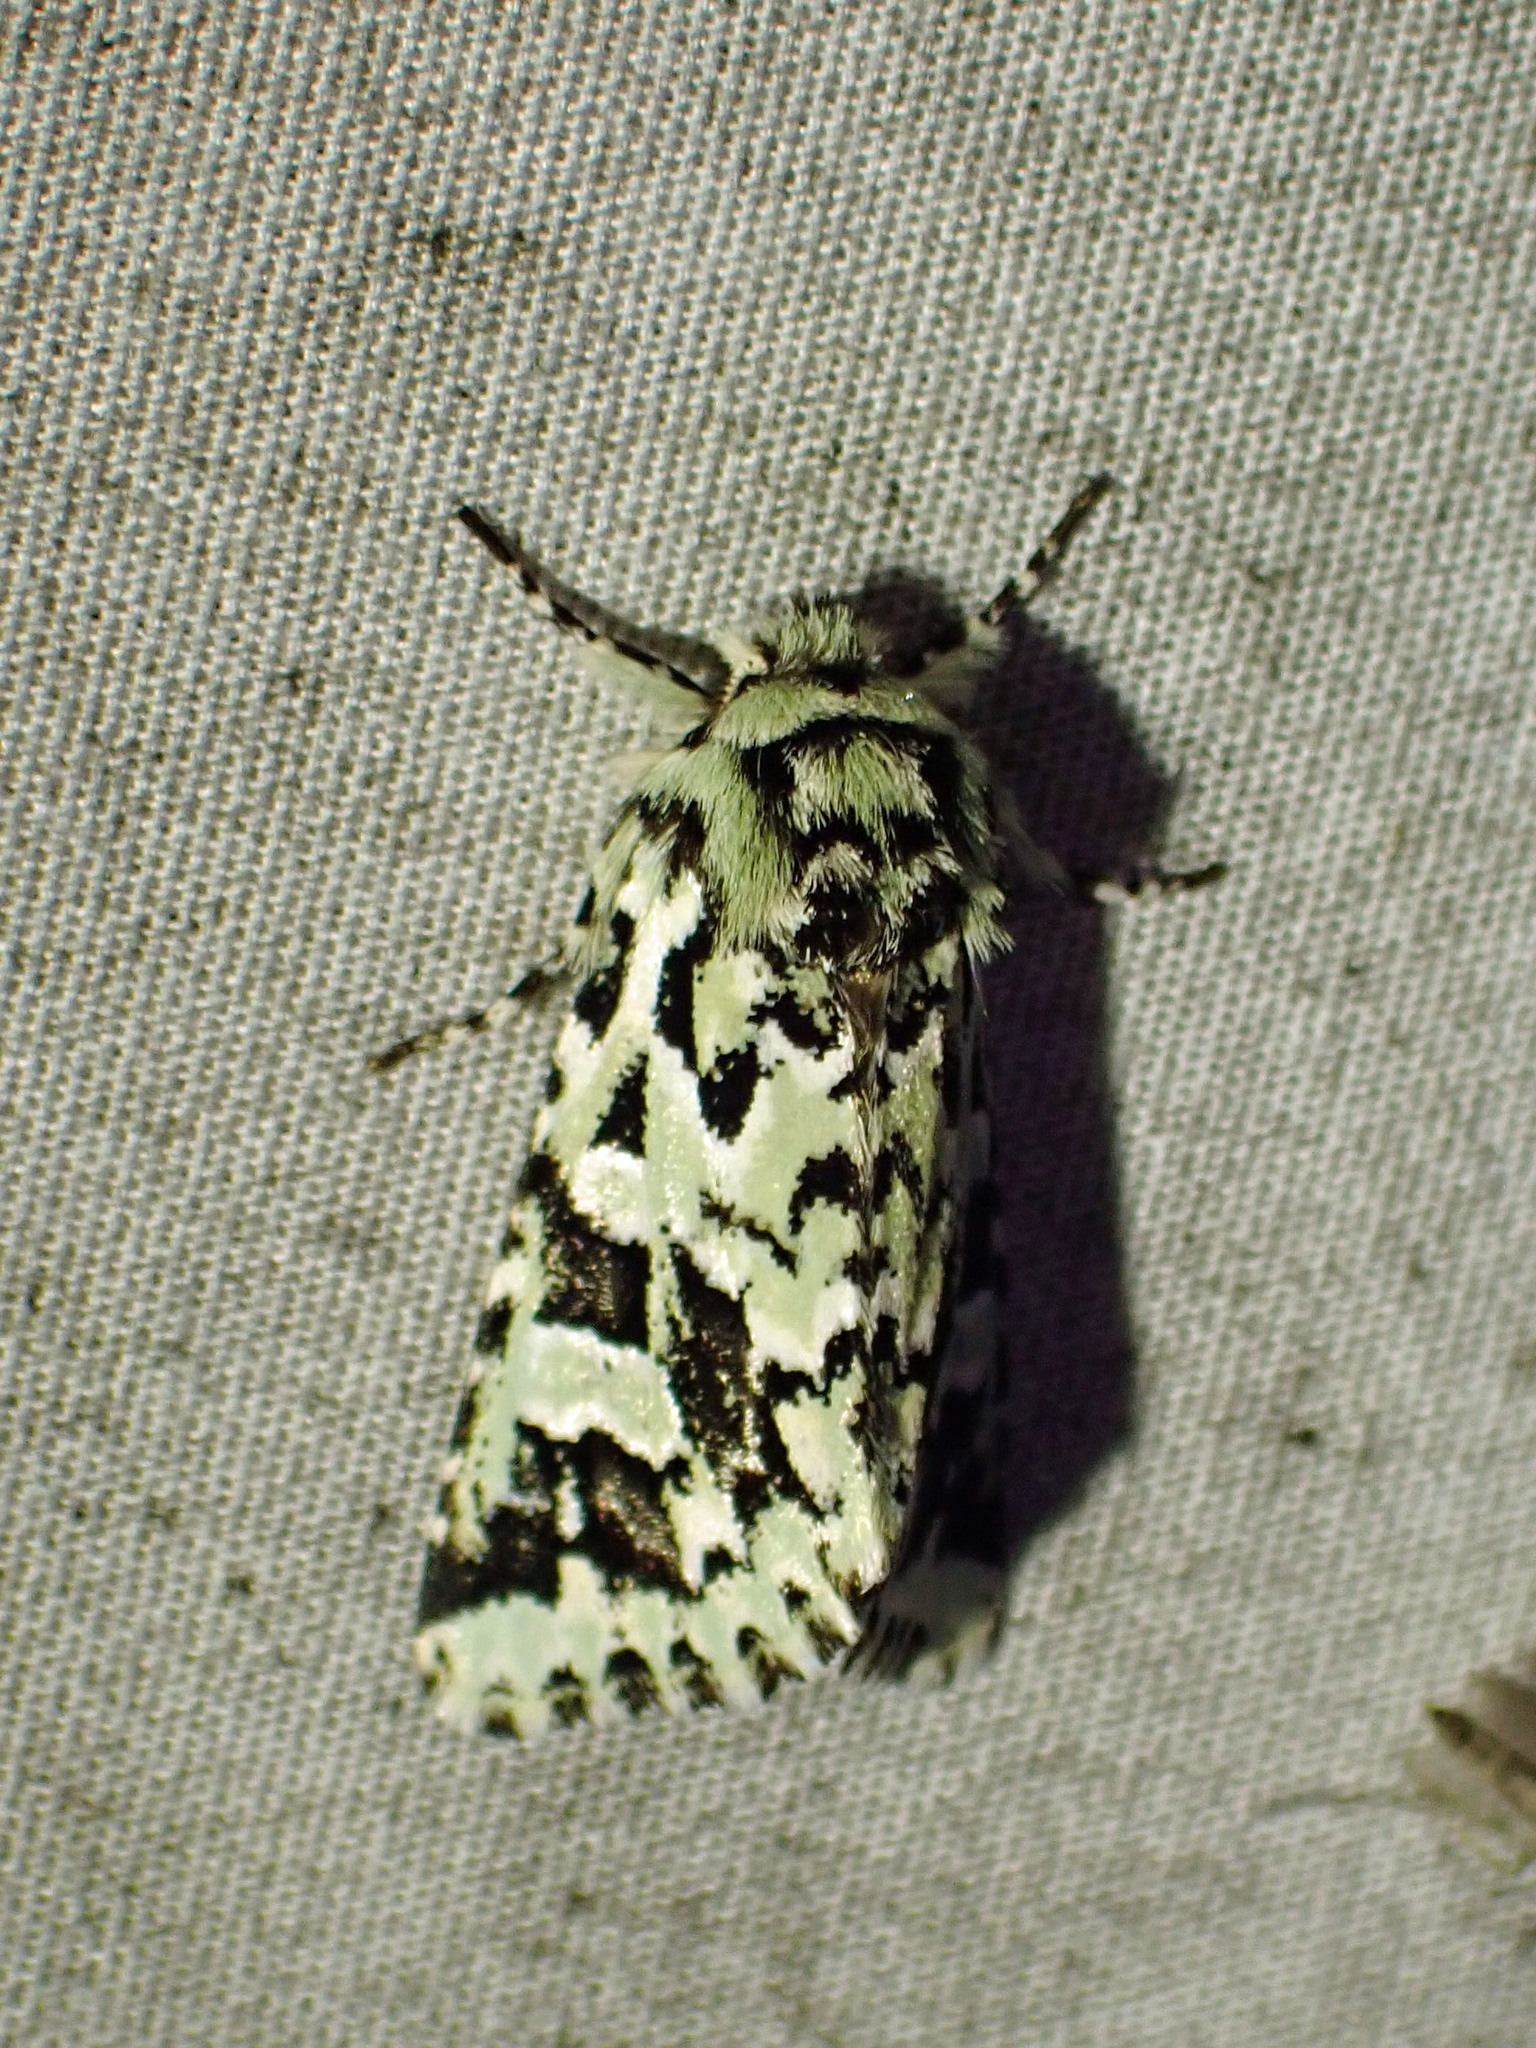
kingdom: Animalia
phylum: Arthropoda
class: Insecta
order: Lepidoptera
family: Noctuidae
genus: Feralia
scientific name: Feralia comstocki
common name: Comstock's sallow
